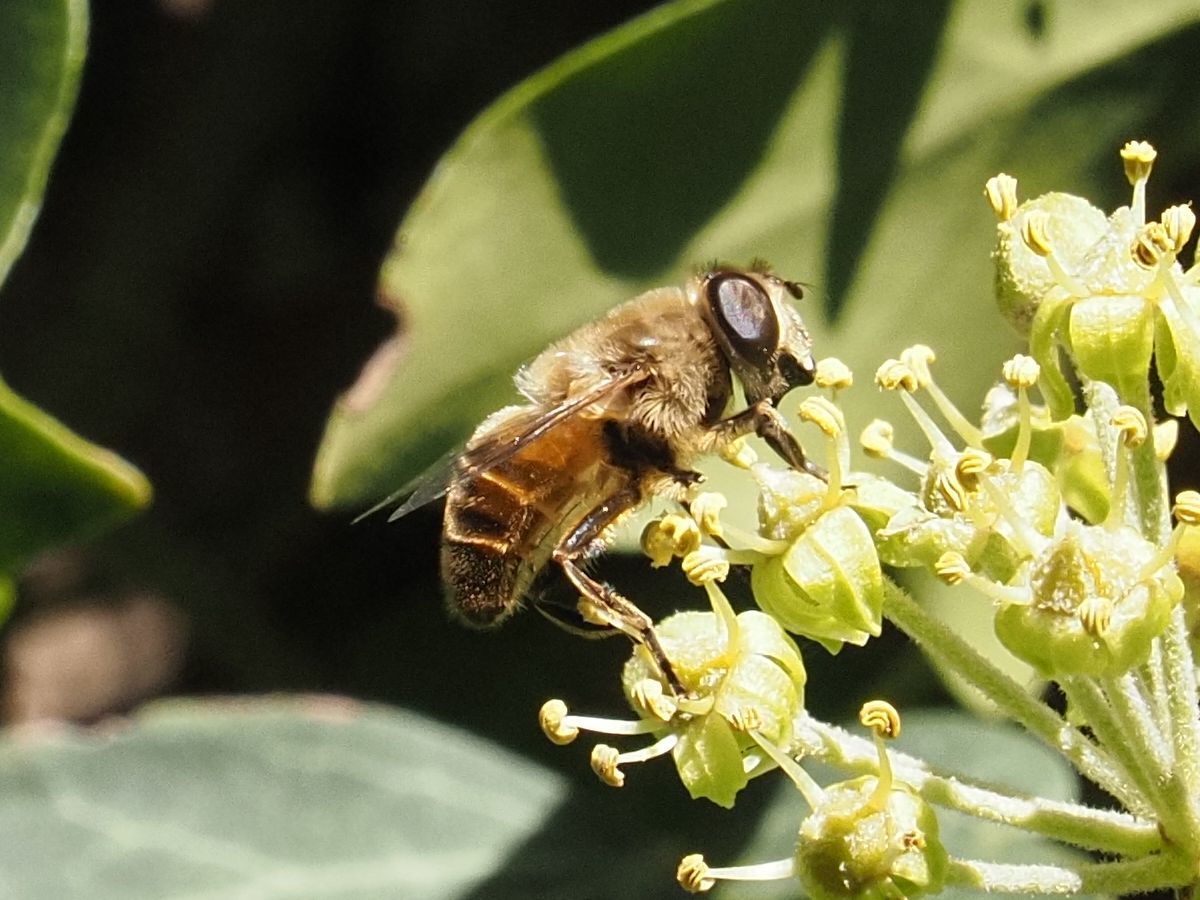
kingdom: Animalia
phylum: Arthropoda
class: Insecta
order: Diptera
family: Syrphidae
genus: Eristalis
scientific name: Eristalis tenax
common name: Drone fly
